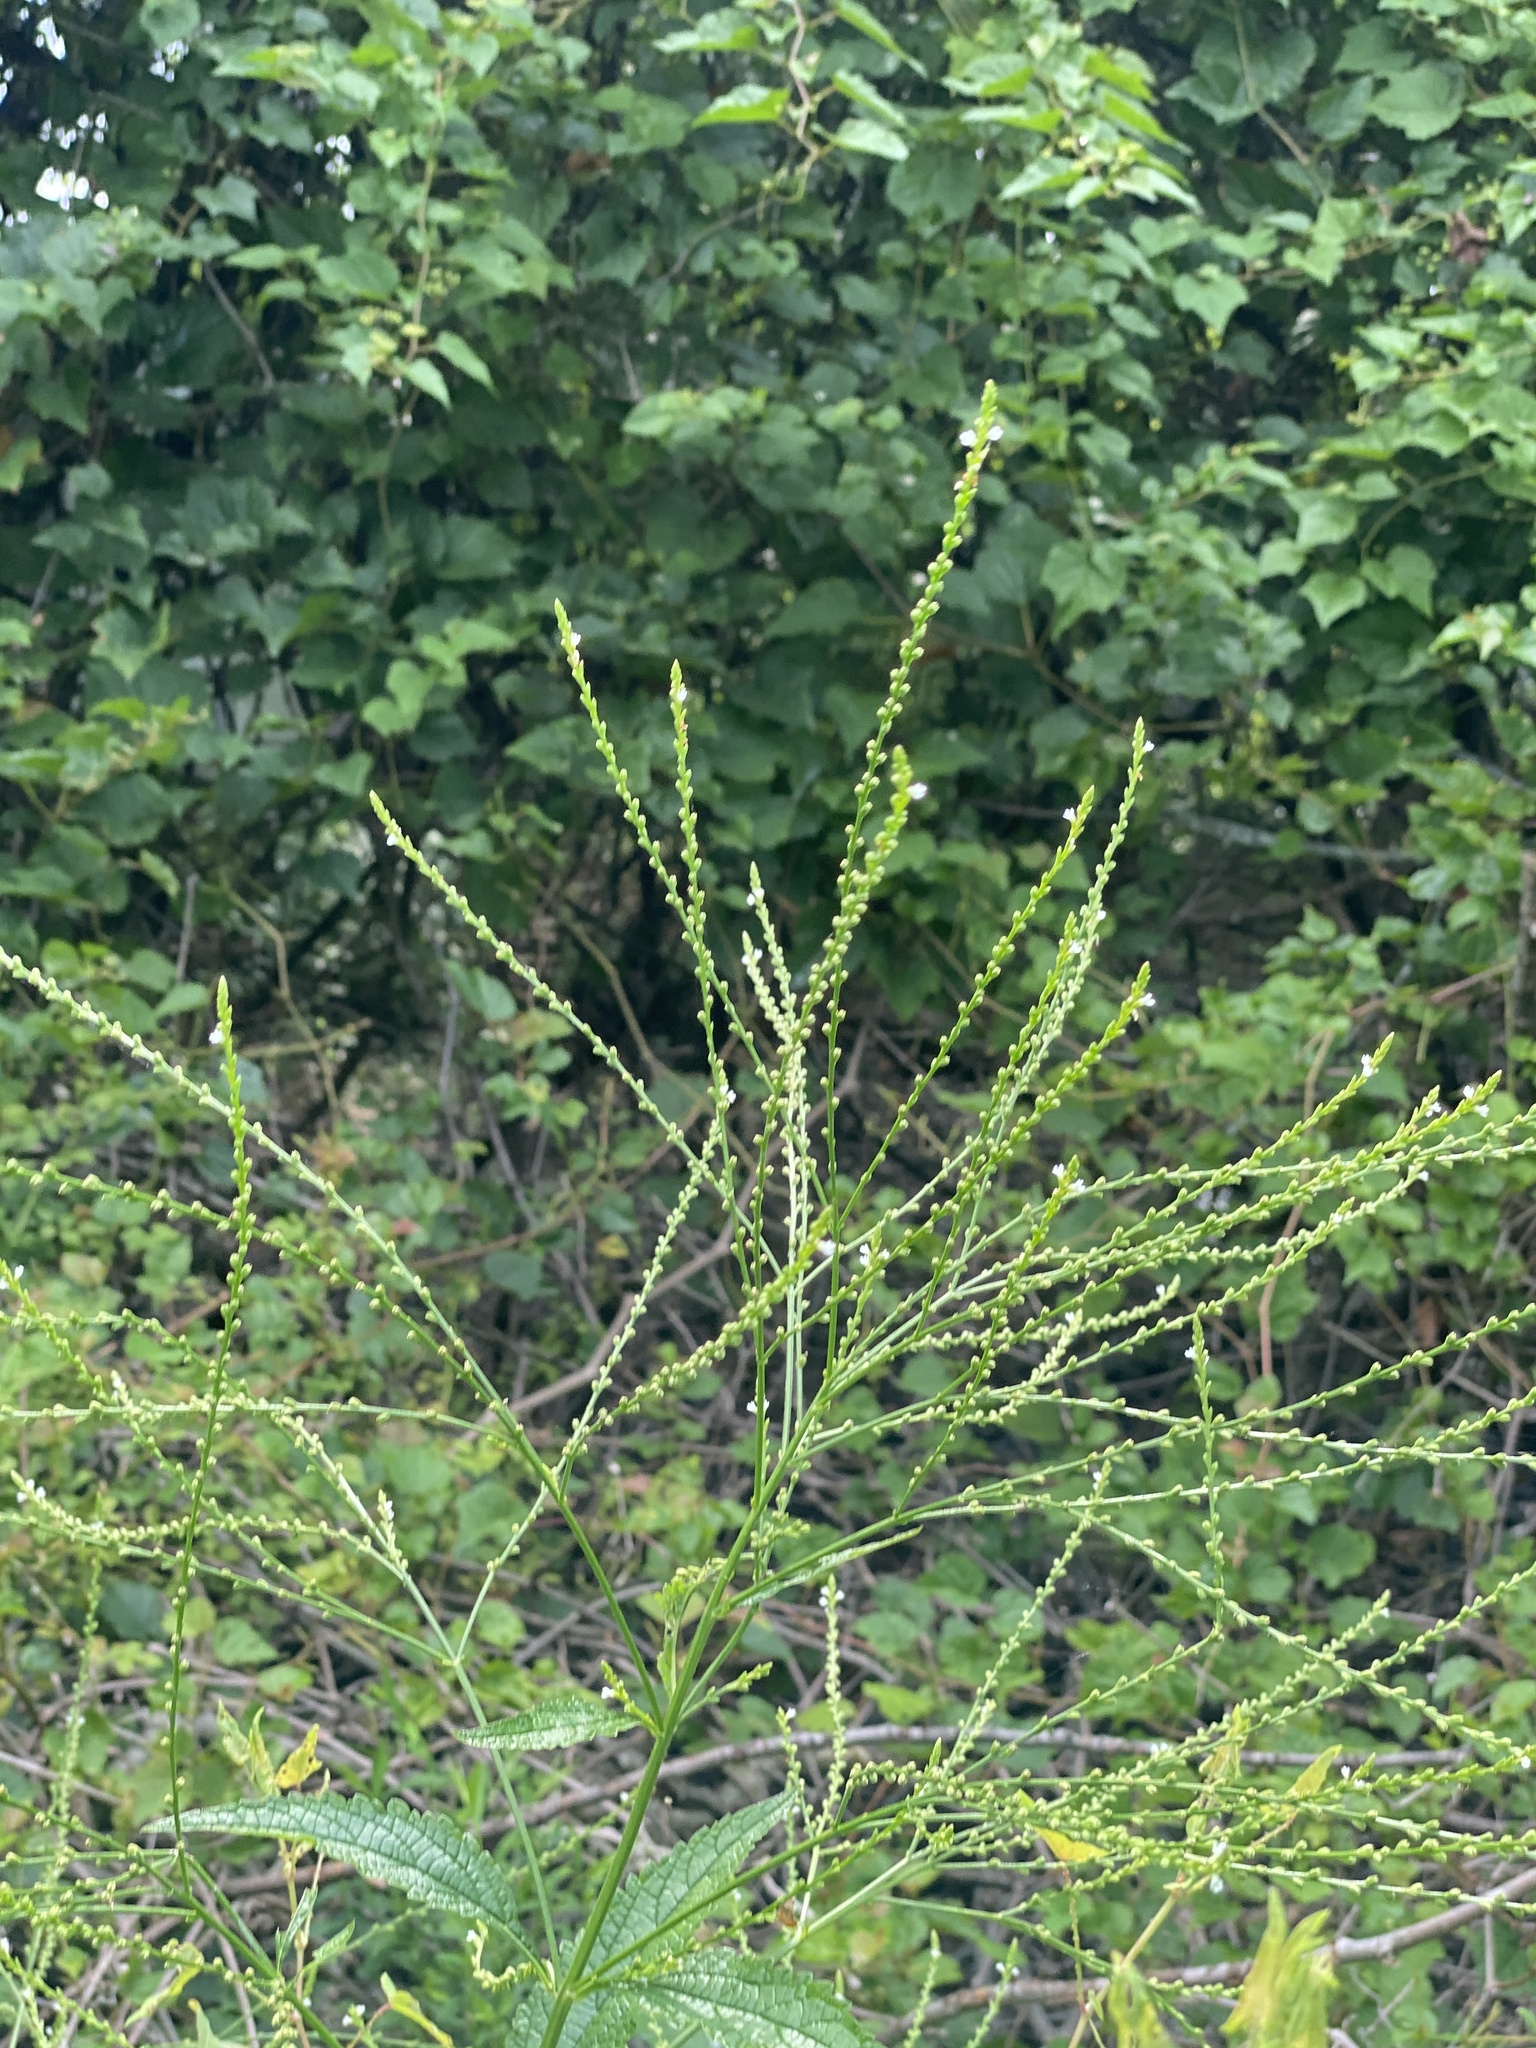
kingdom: Plantae
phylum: Tracheophyta
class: Magnoliopsida
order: Lamiales
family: Verbenaceae
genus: Verbena
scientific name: Verbena urticifolia
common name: Nettle-leaved vervain
